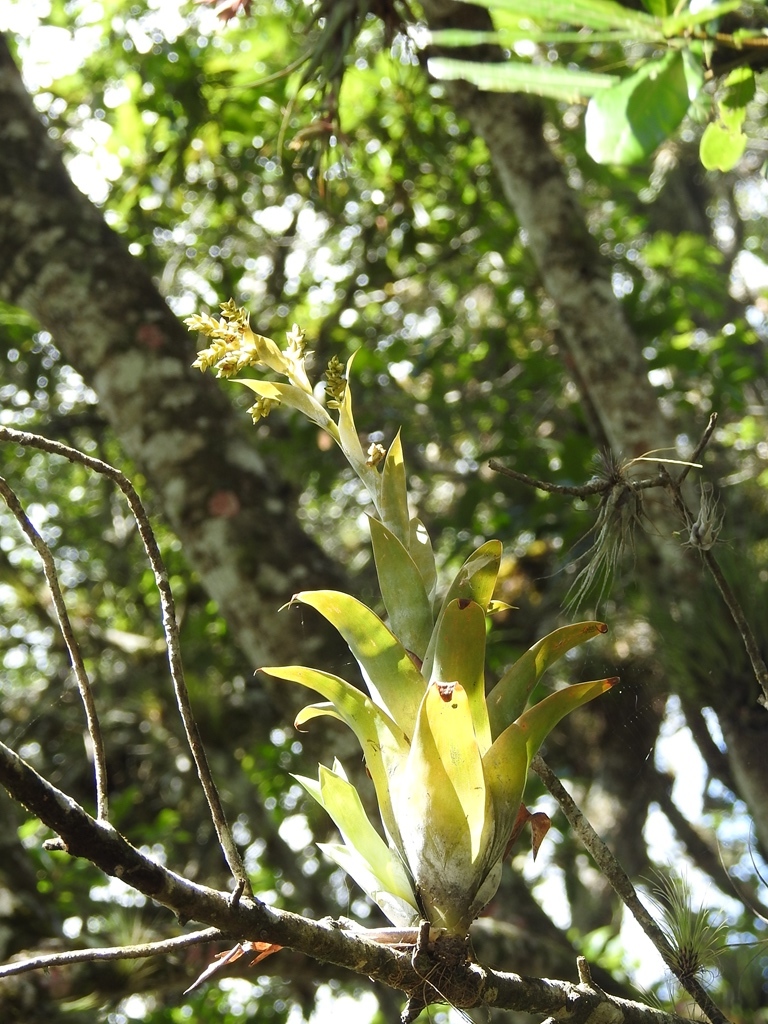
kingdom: Plantae
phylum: Tracheophyta
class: Liliopsida
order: Poales
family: Bromeliaceae
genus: Catopsis
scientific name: Catopsis paniculata
